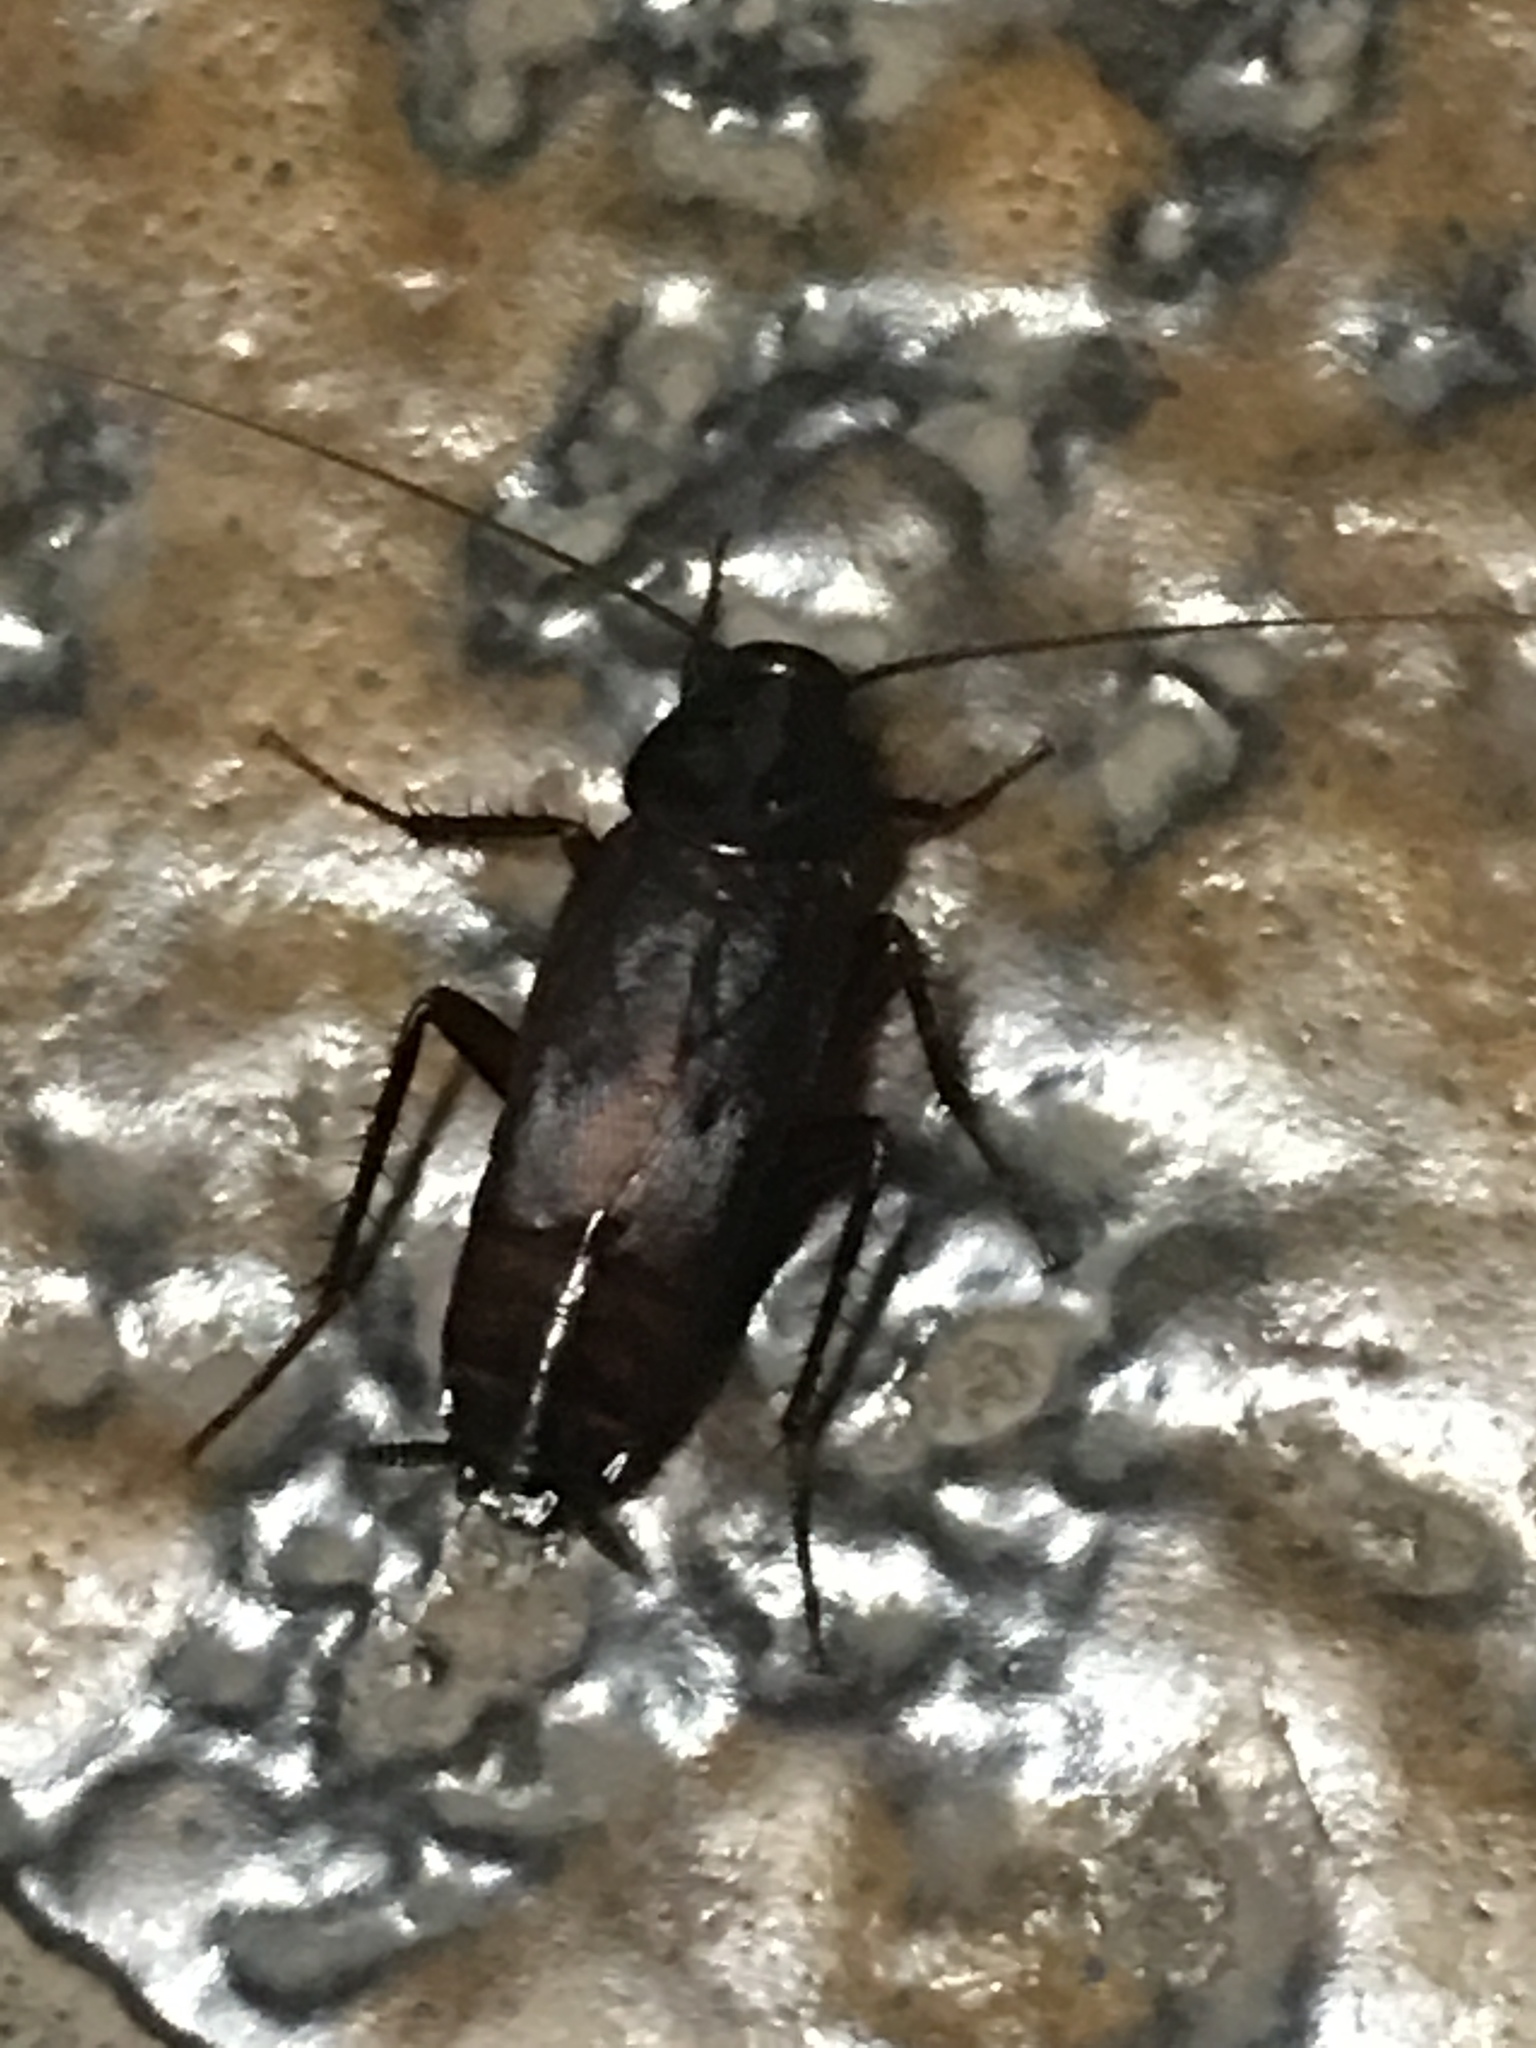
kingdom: Animalia
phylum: Arthropoda
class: Insecta
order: Blattodea
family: Blattidae
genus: Blatta
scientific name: Blatta orientalis
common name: Oriental cockroach
